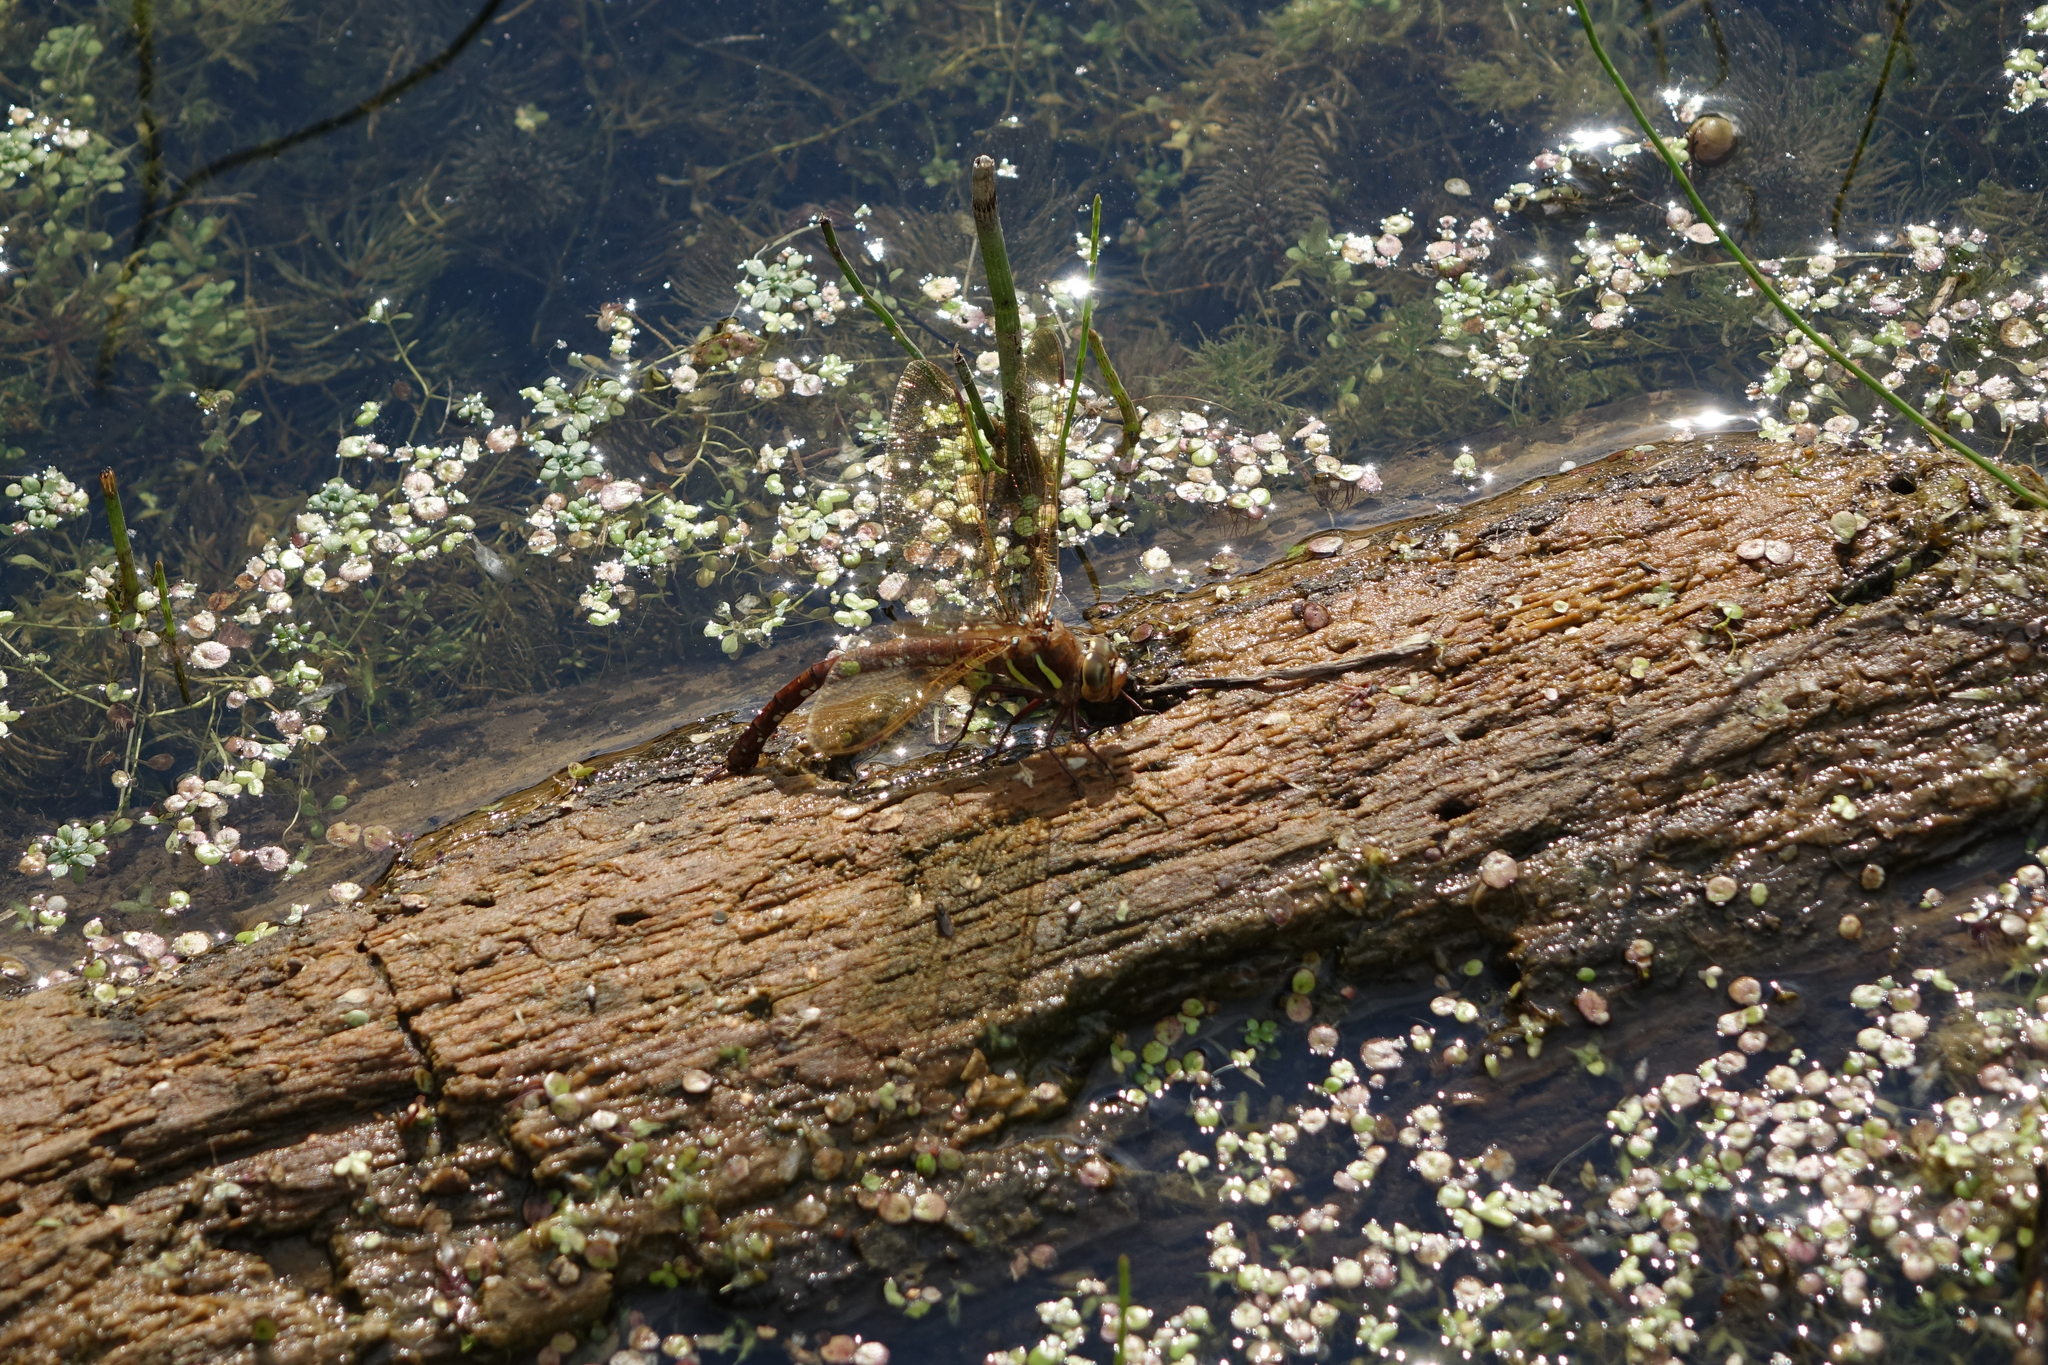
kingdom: Animalia
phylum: Arthropoda
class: Insecta
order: Odonata
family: Aeshnidae
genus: Aeshna
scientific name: Aeshna grandis
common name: Brown hawker
